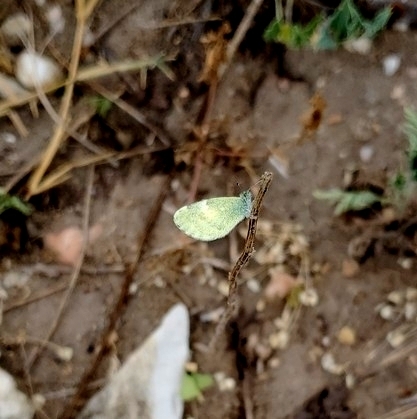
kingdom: Animalia
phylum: Arthropoda
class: Insecta
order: Lepidoptera
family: Pieridae
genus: Nathalis
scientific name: Nathalis iole
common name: Dainty sulphur
